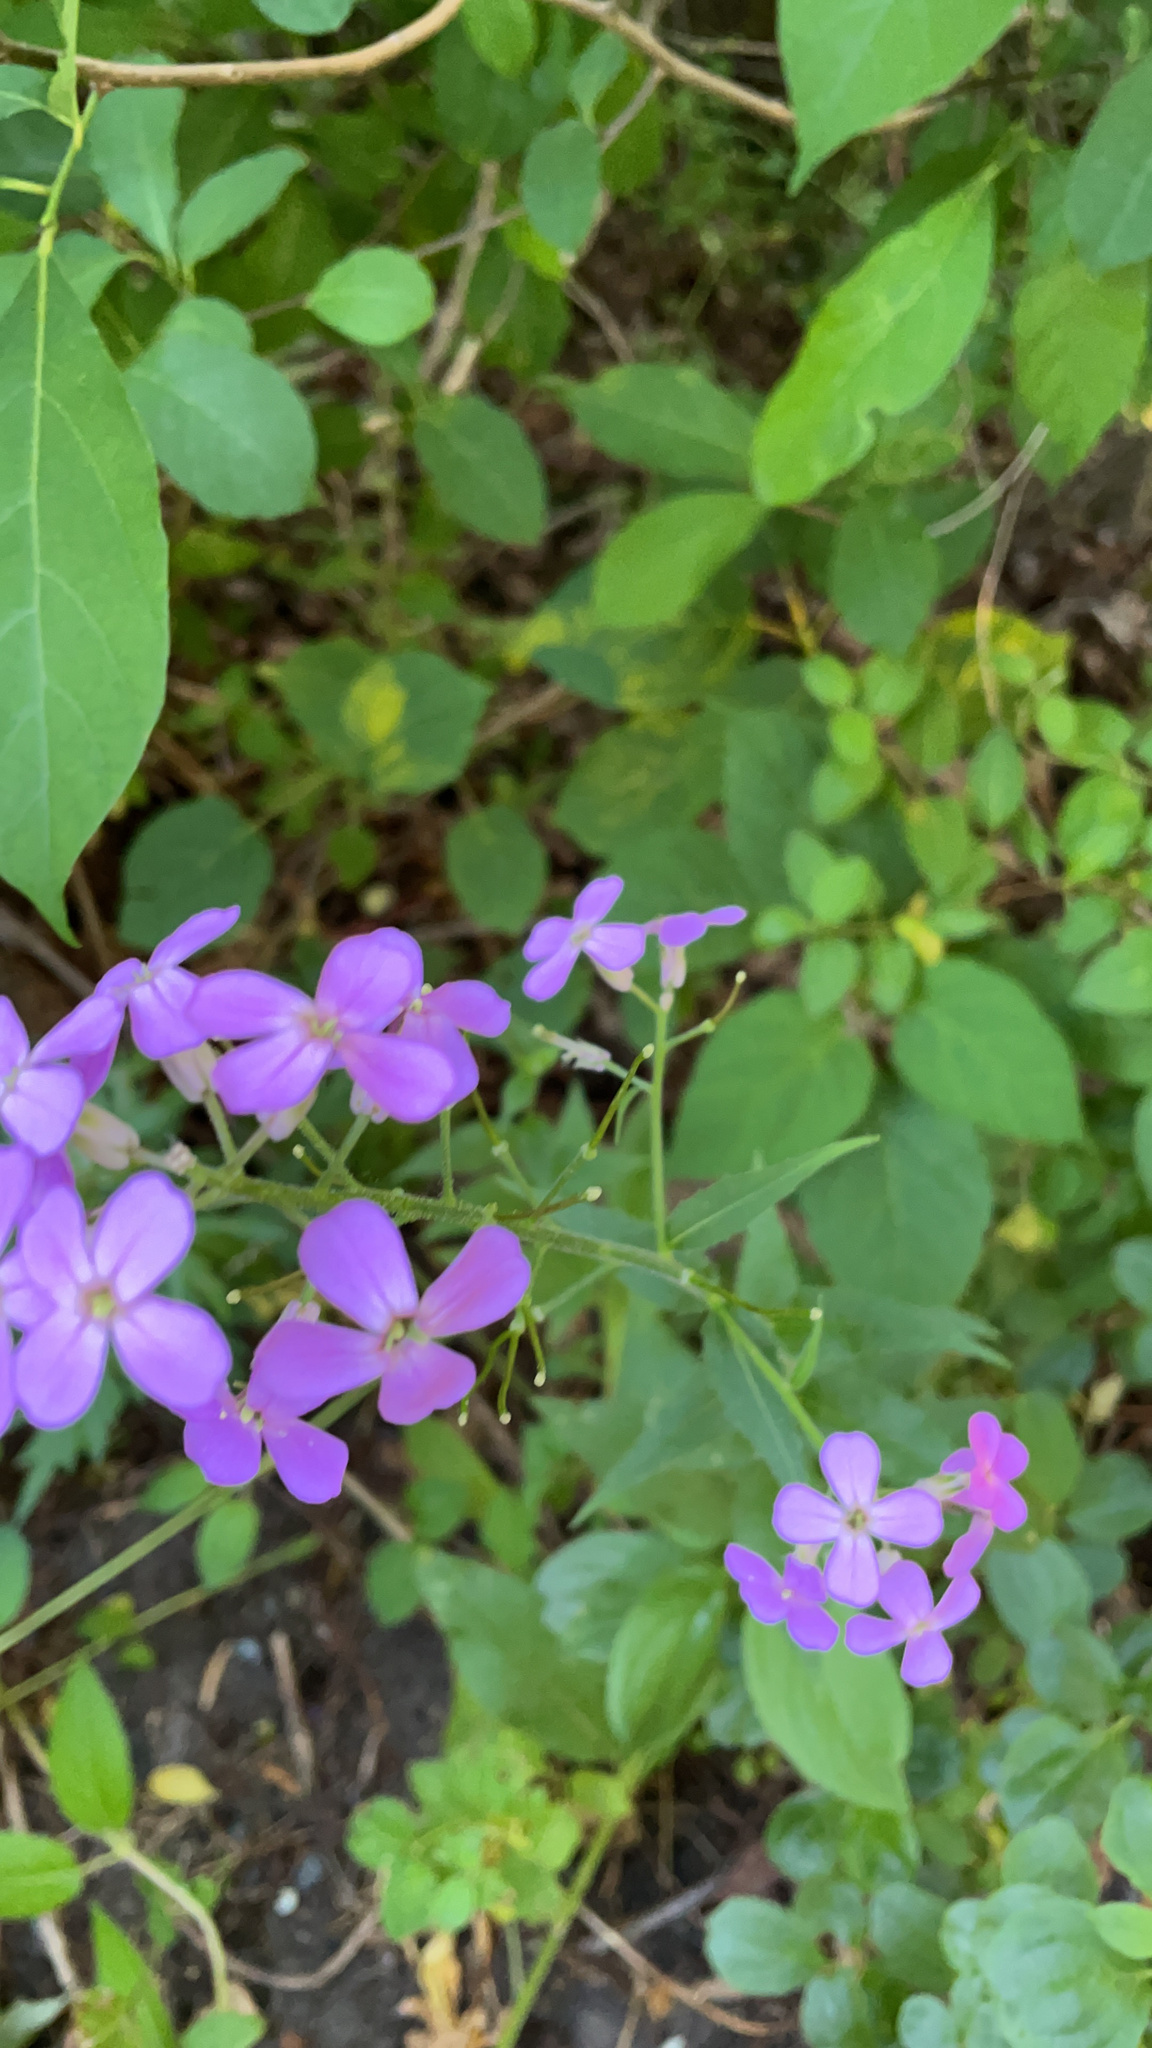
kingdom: Plantae
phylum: Tracheophyta
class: Magnoliopsida
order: Brassicales
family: Brassicaceae
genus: Hesperis
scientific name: Hesperis matronalis
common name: Dame's-violet
